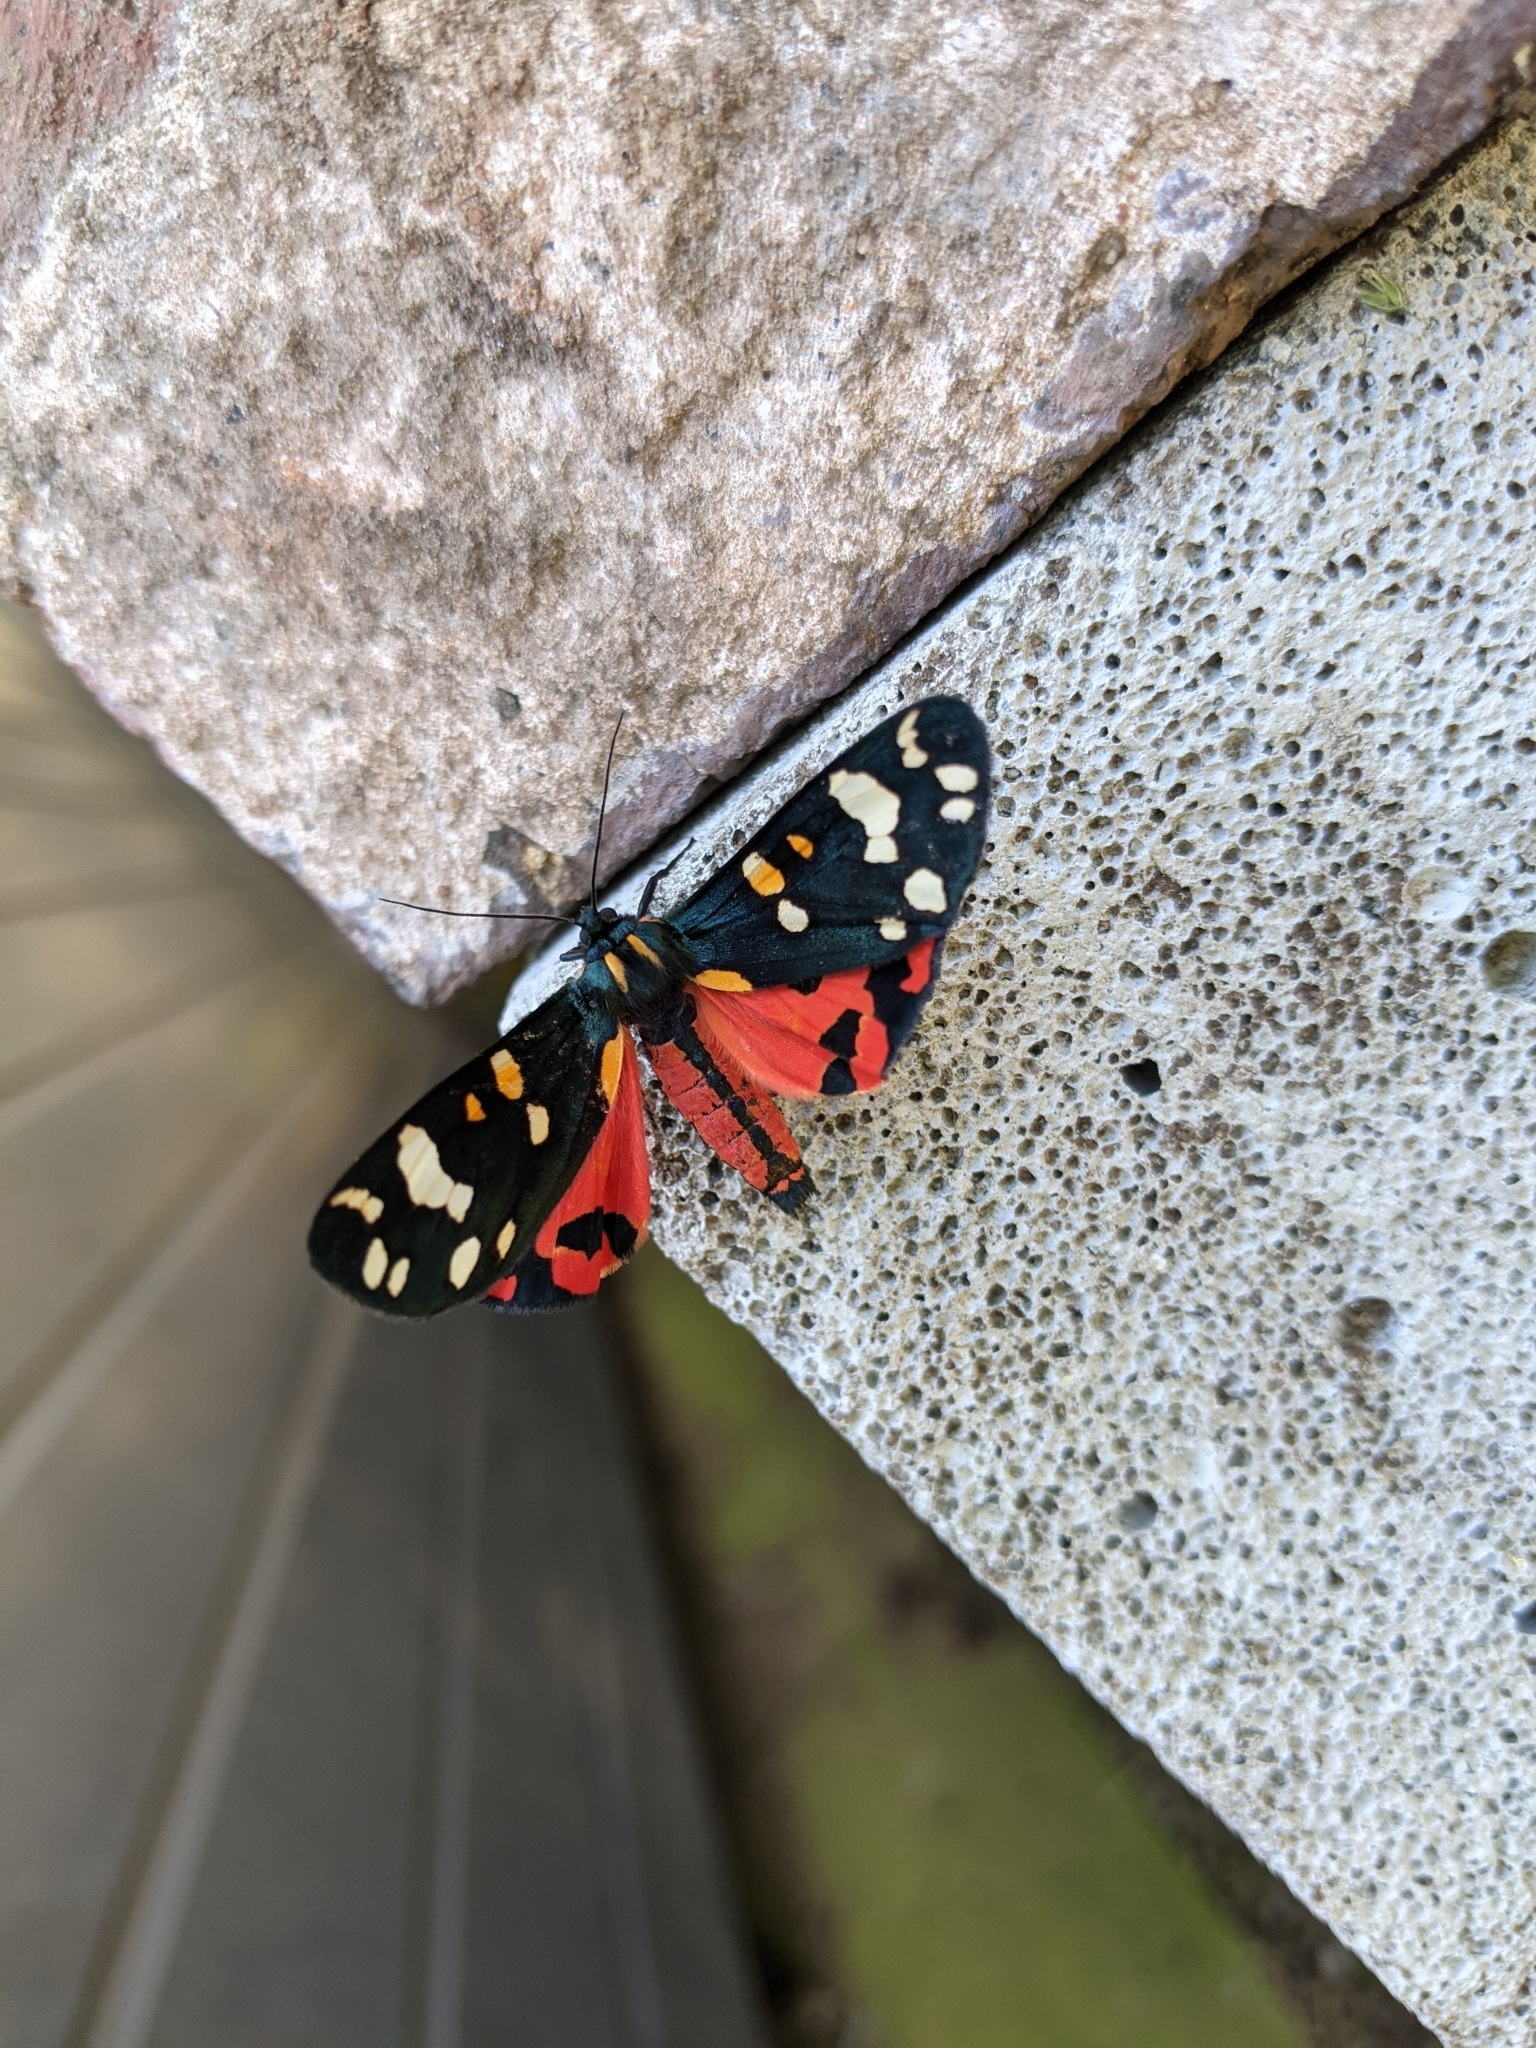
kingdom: Animalia
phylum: Arthropoda
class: Insecta
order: Lepidoptera
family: Erebidae
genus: Callimorpha
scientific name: Callimorpha dominula
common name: Scarlet tiger
